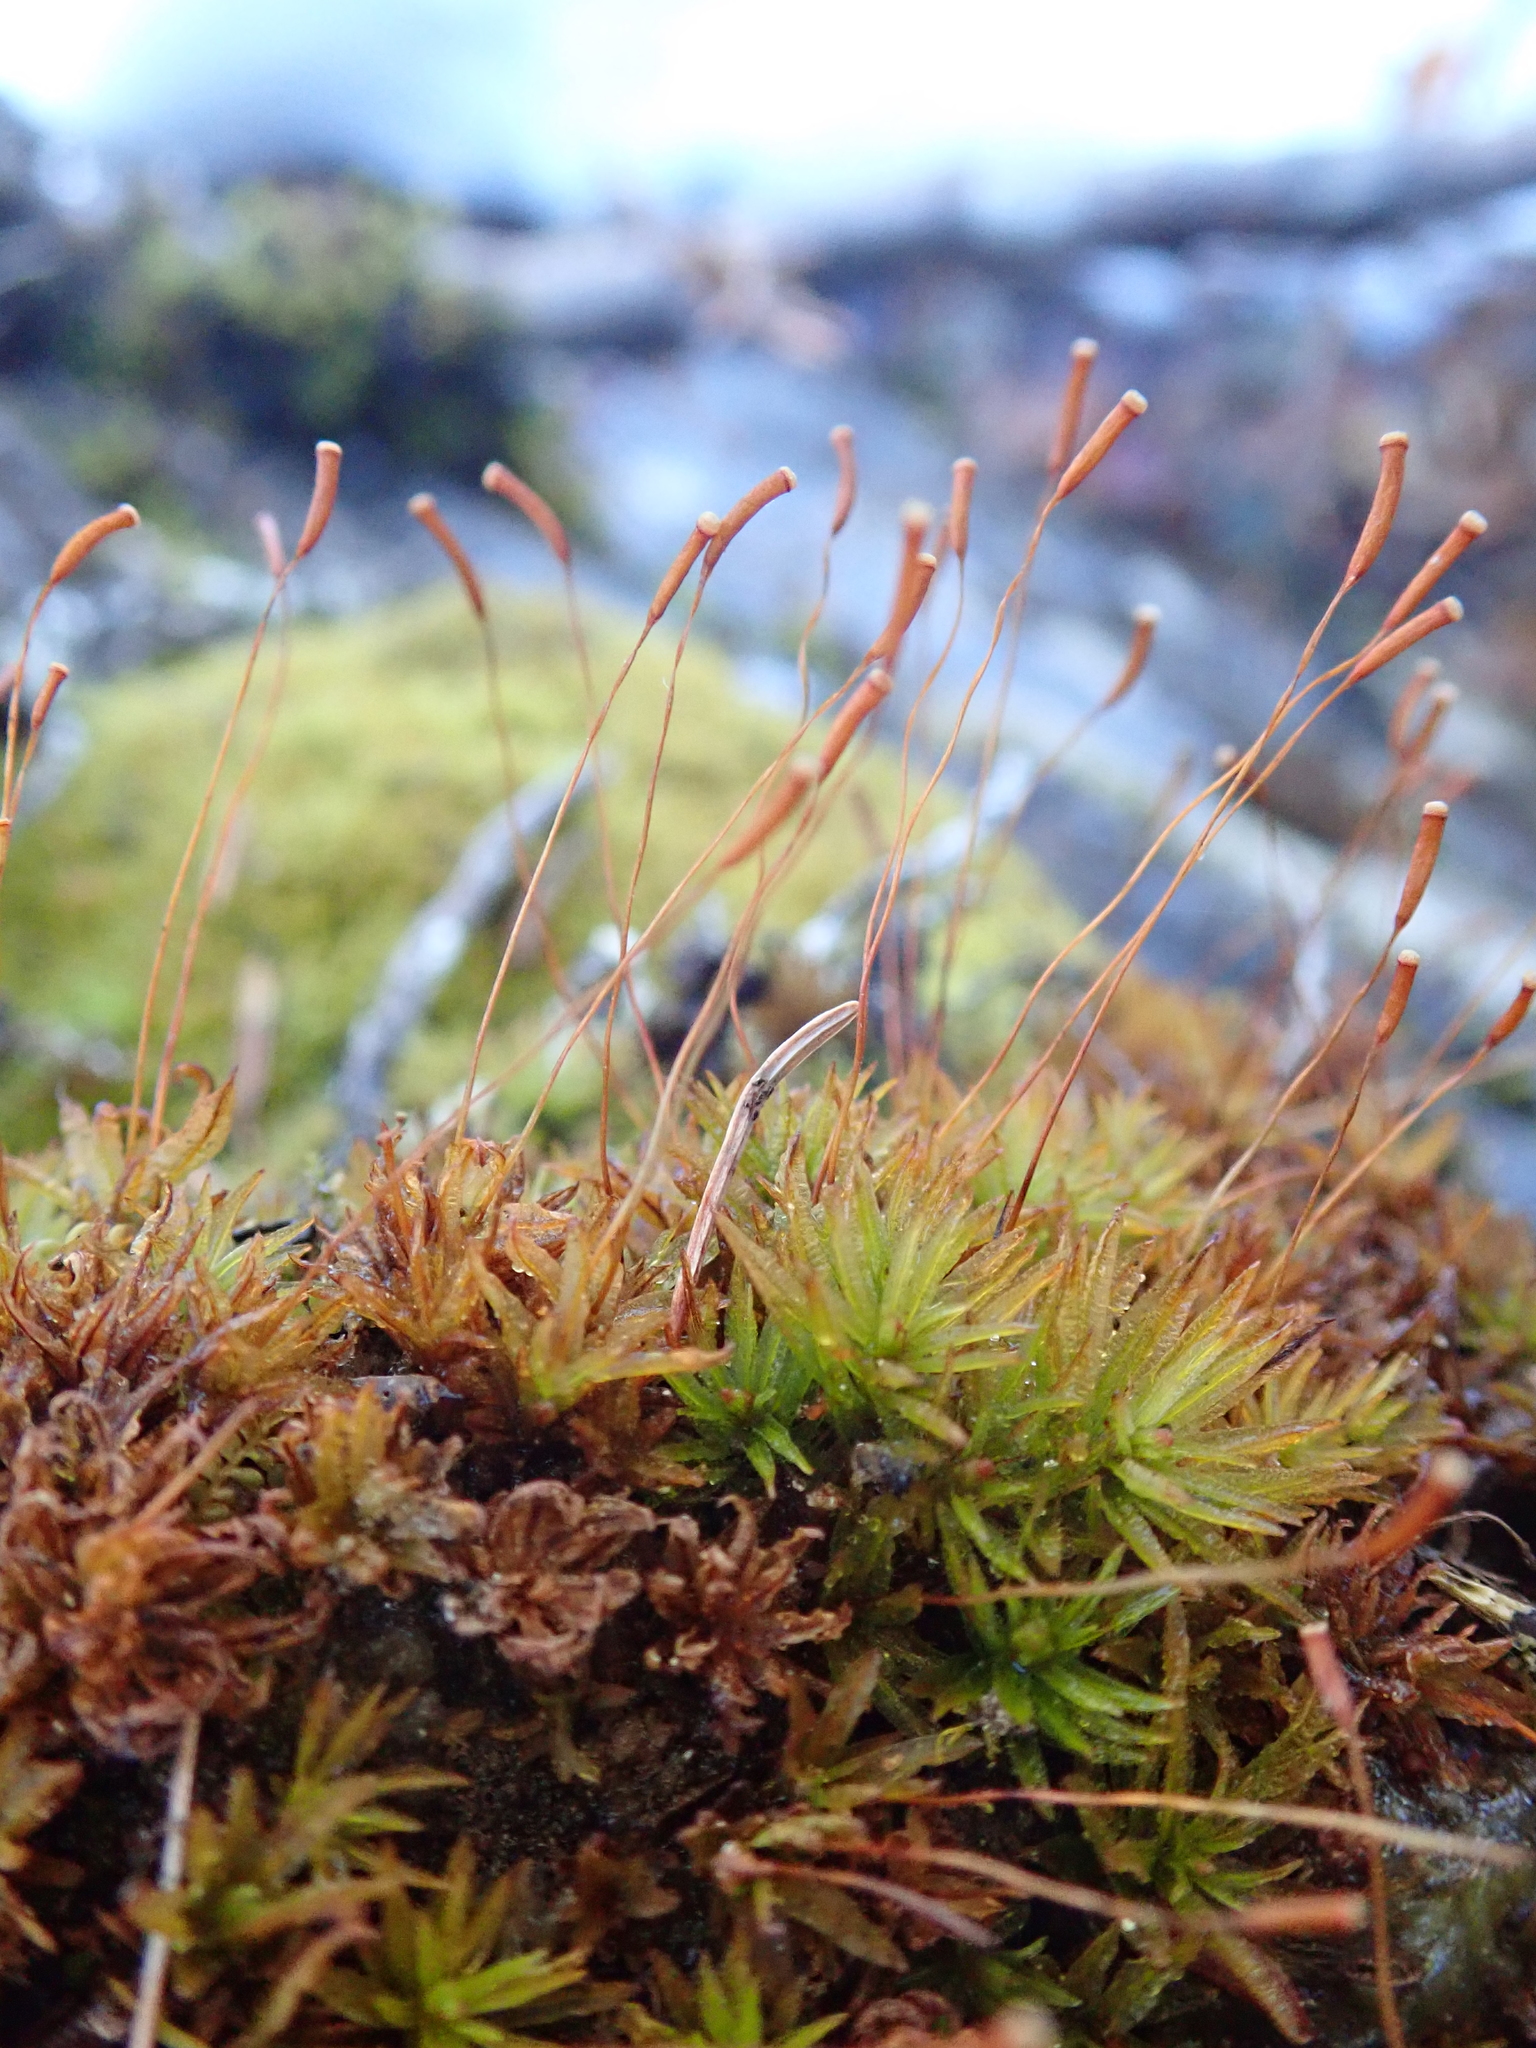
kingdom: Plantae
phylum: Bryophyta
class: Polytrichopsida
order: Polytrichales
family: Polytrichaceae
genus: Atrichum
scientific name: Atrichum undulatum
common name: Common smoothcap
